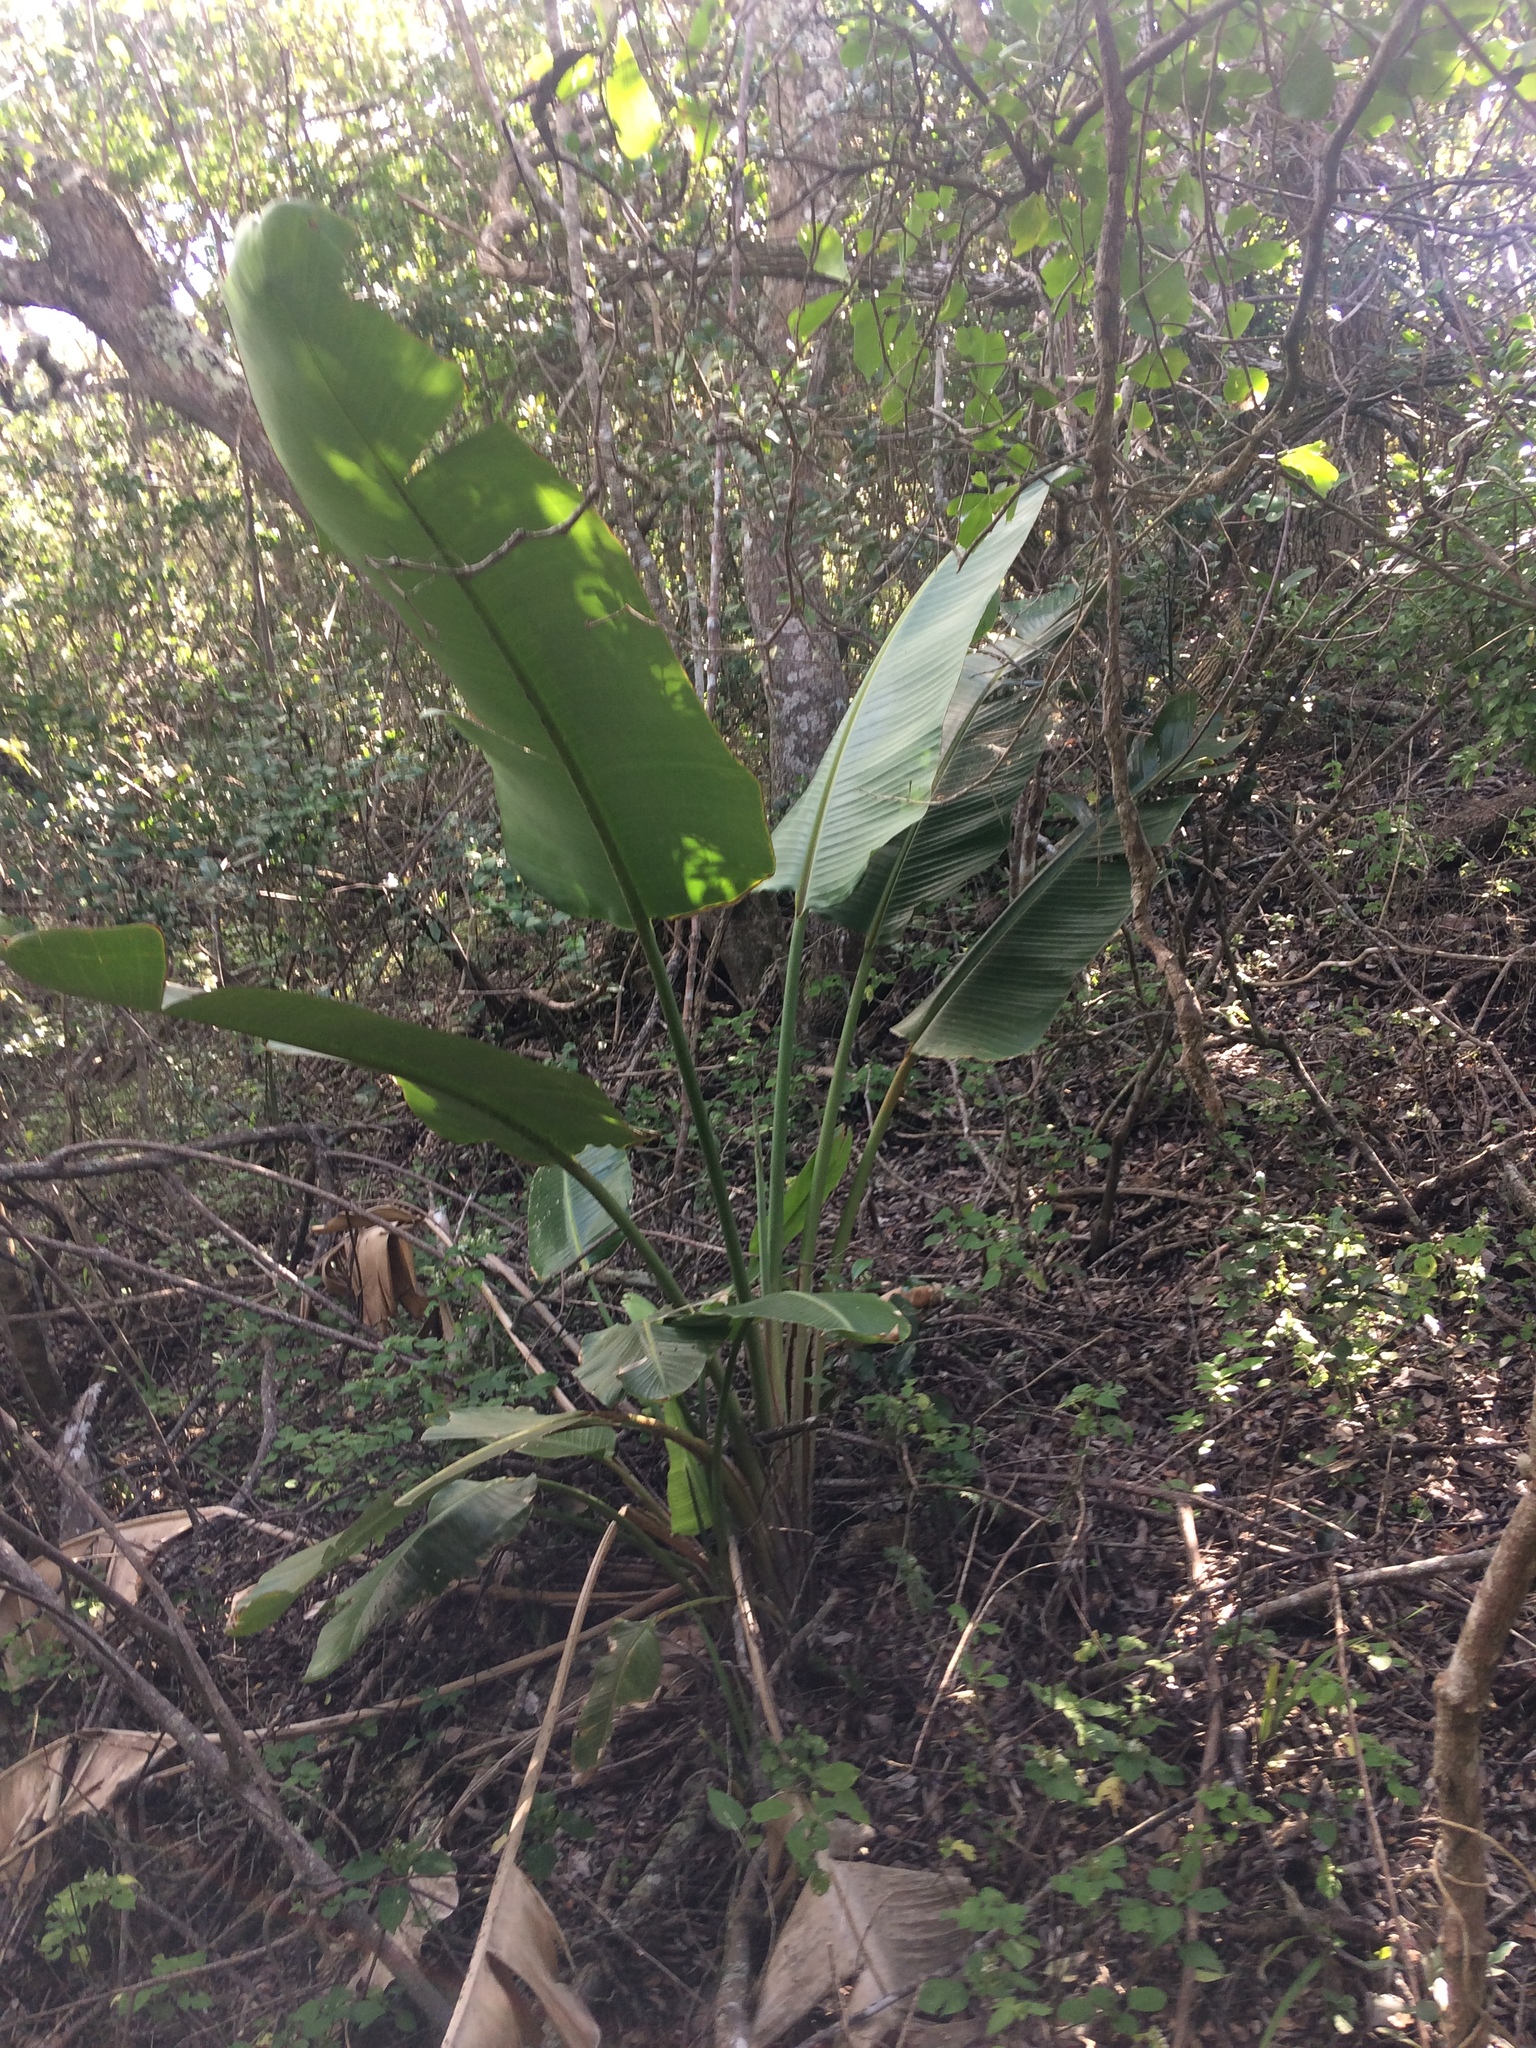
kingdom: Plantae
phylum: Tracheophyta
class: Liliopsida
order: Zingiberales
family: Strelitziaceae
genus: Strelitzia
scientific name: Strelitzia nicolai
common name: Bird-of-paradise tree
